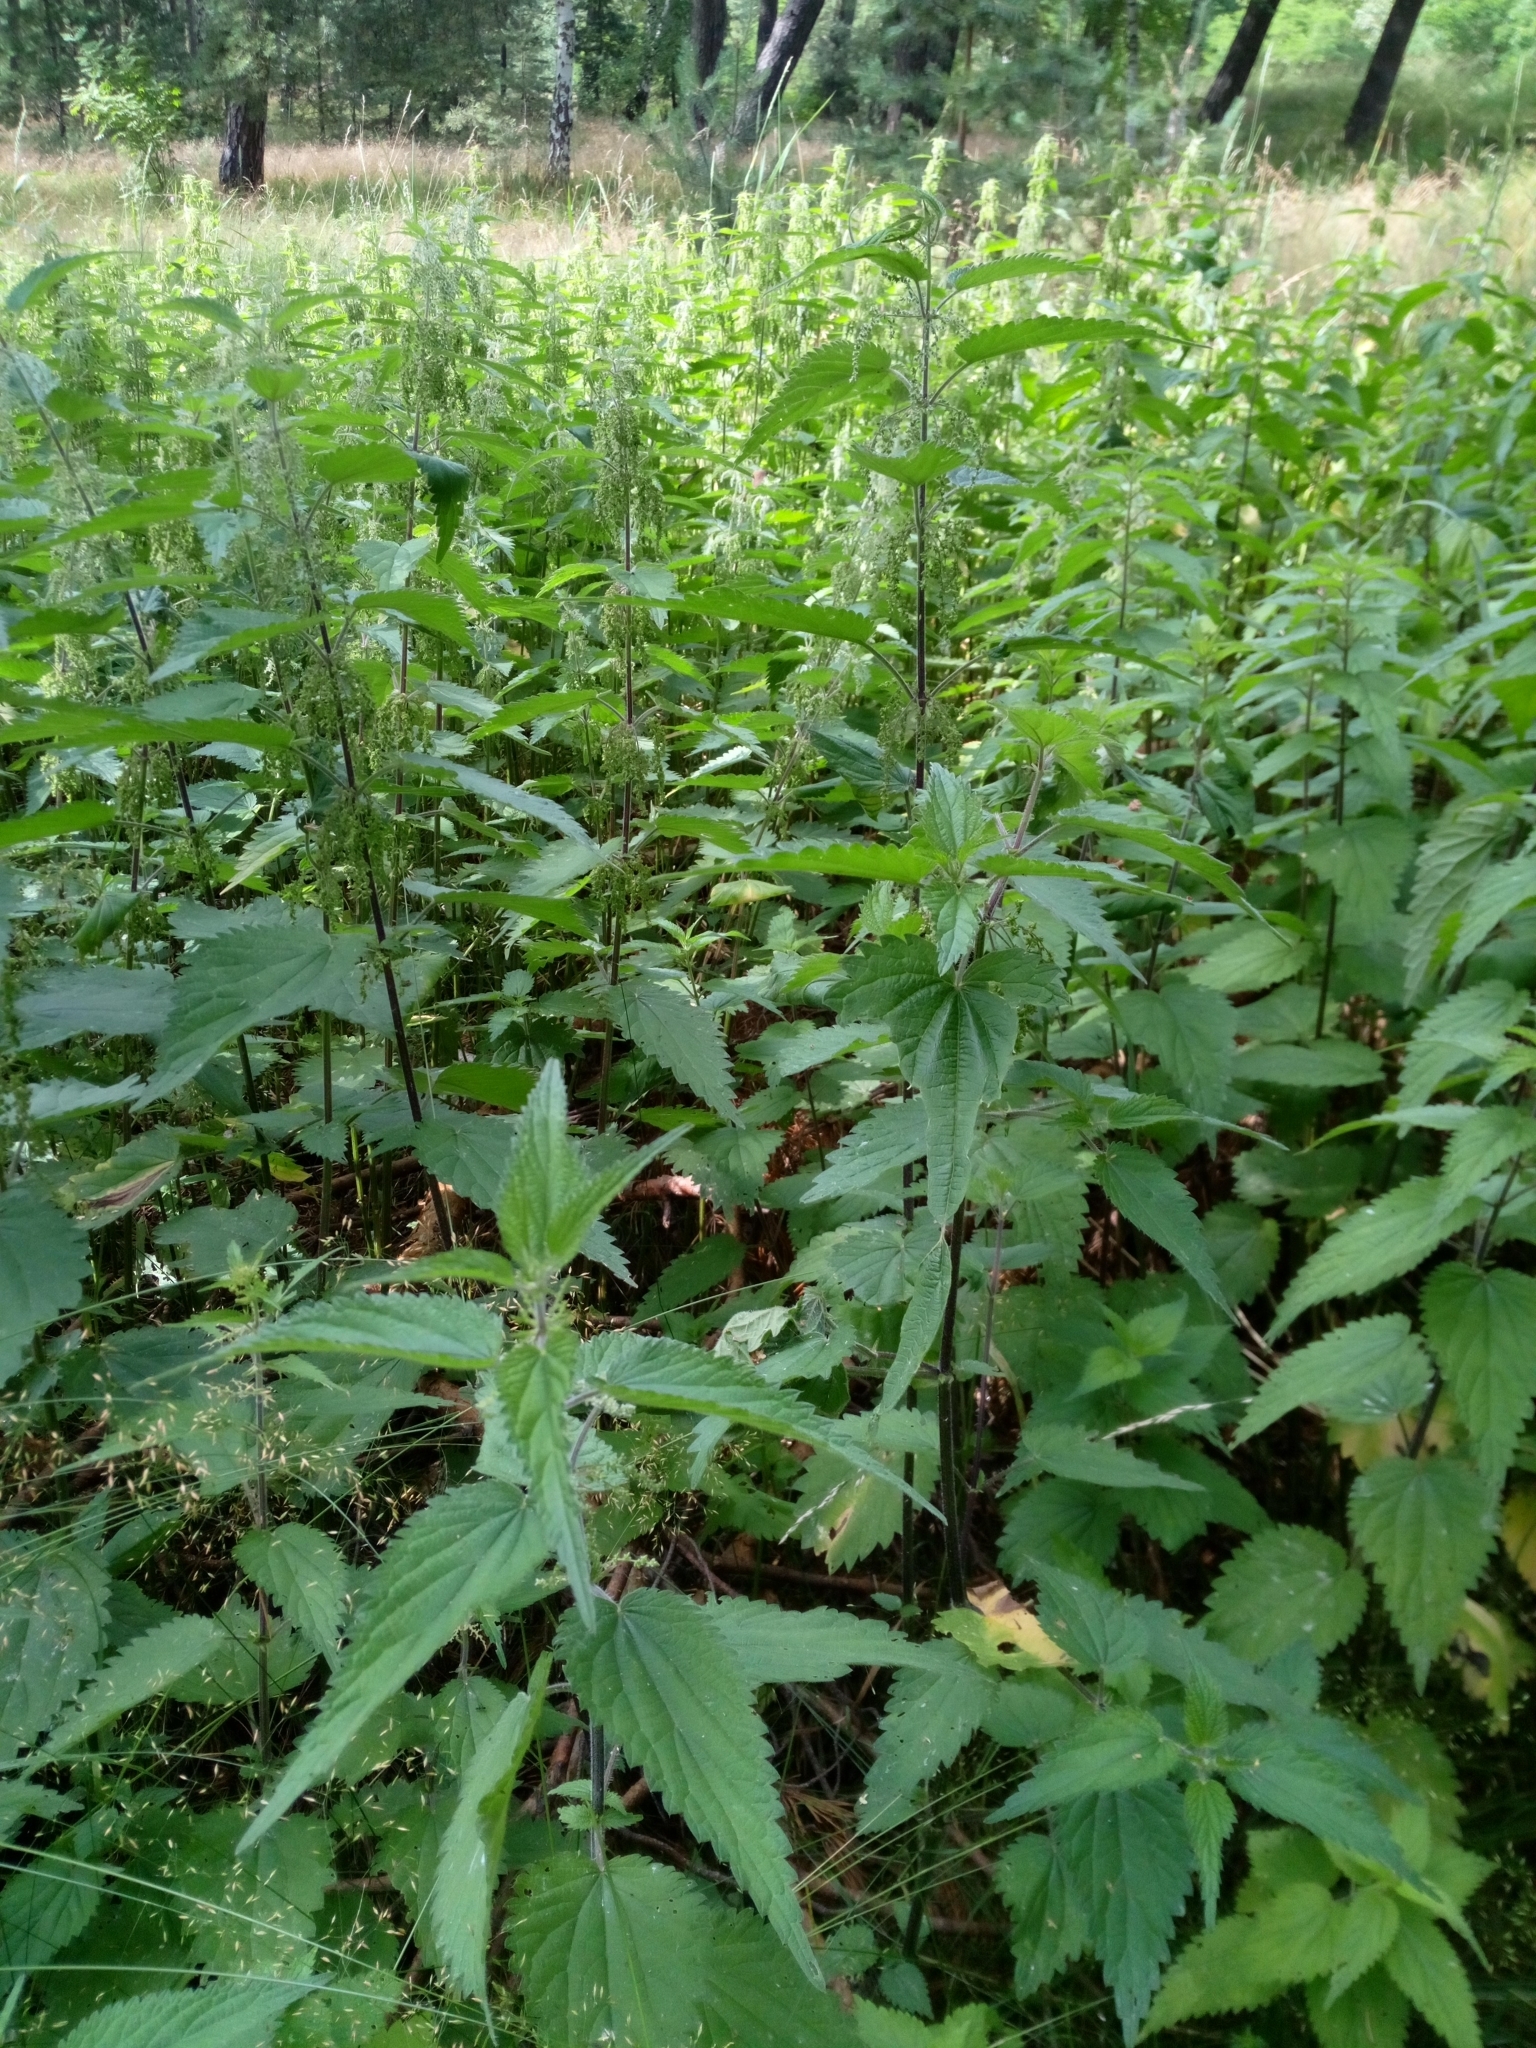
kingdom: Plantae
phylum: Tracheophyta
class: Magnoliopsida
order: Rosales
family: Urticaceae
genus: Urtica
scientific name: Urtica dioica
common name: Common nettle
